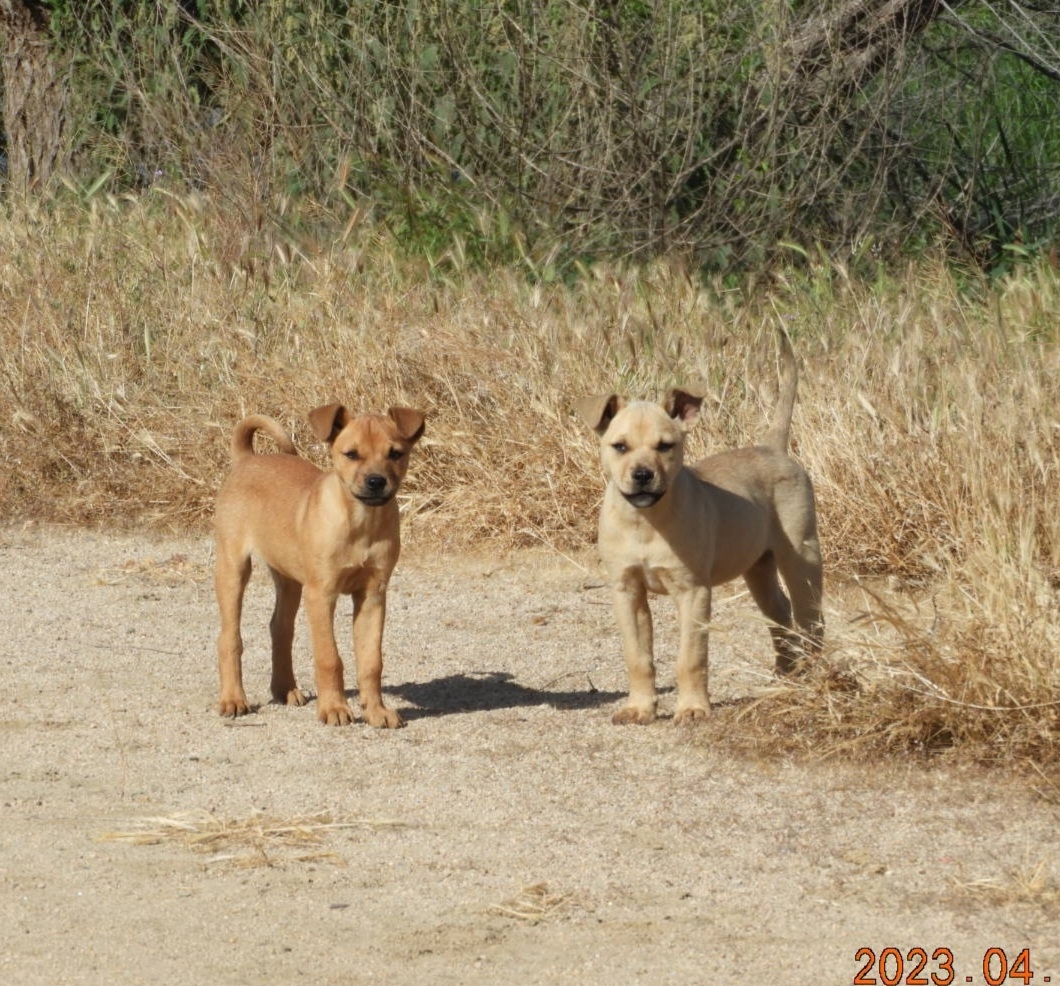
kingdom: Animalia
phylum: Chordata
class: Mammalia
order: Carnivora
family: Canidae
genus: Canis
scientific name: Canis lupus
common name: Gray wolf
